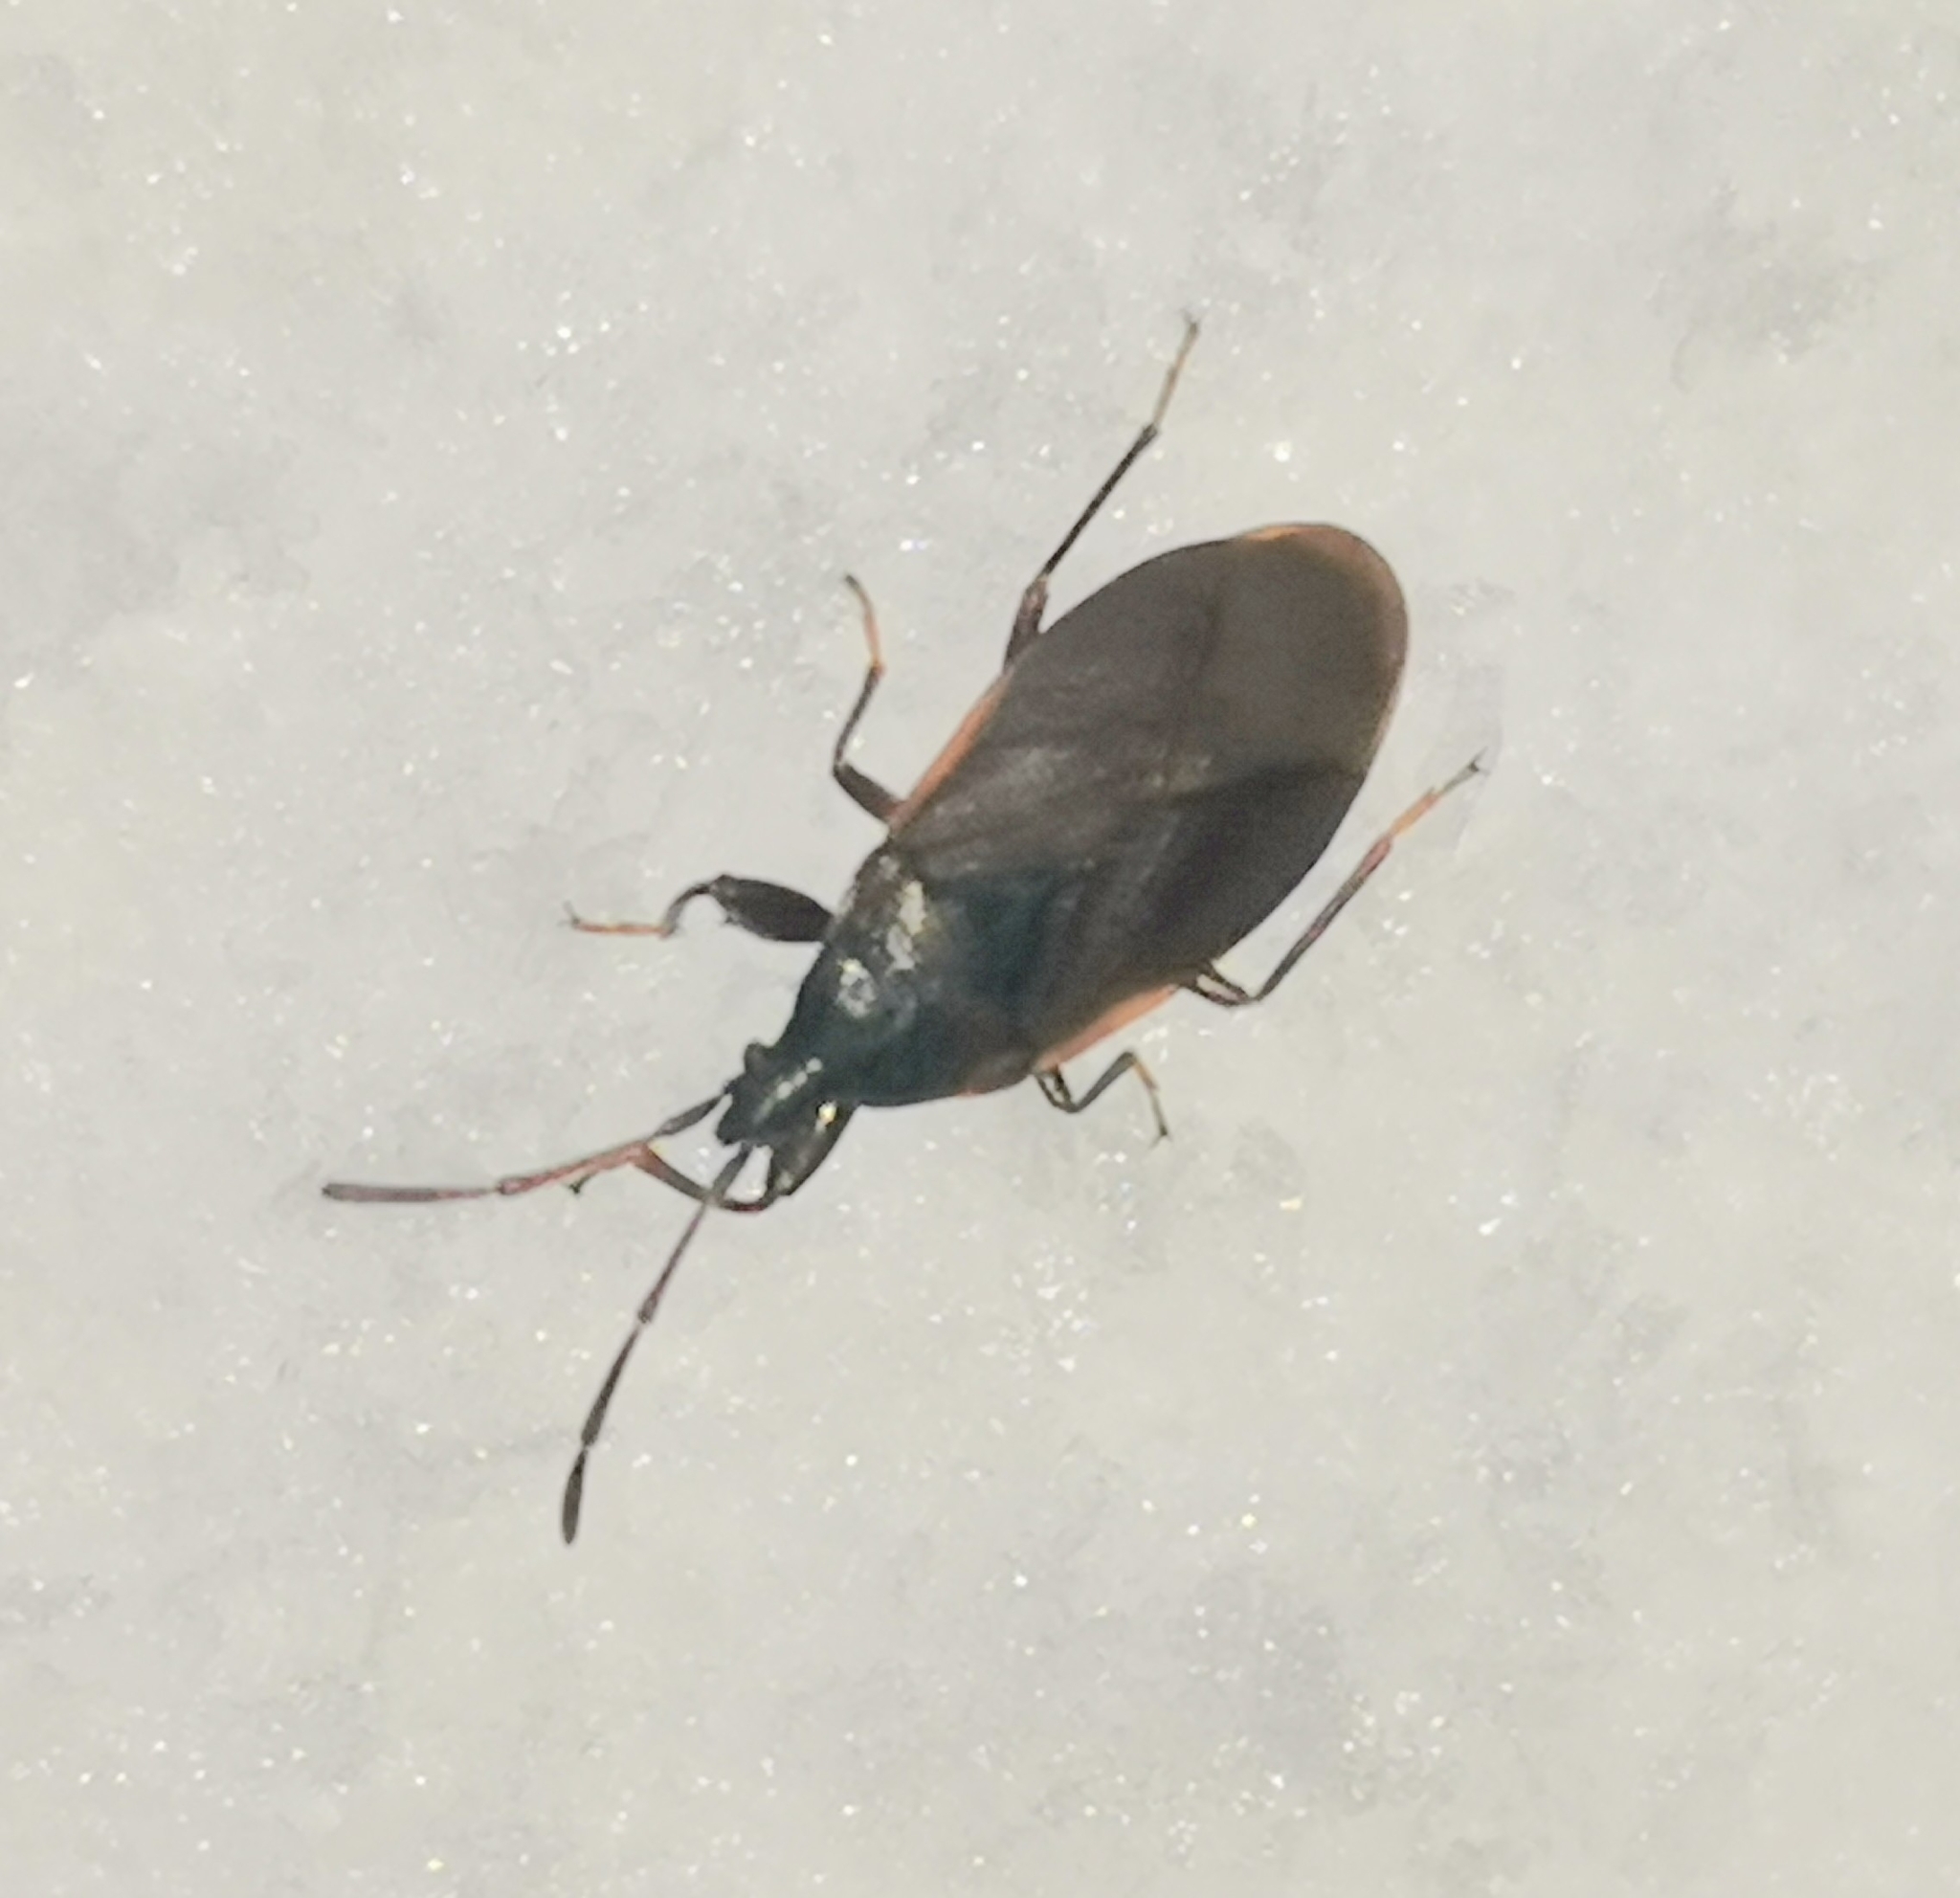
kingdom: Animalia
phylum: Arthropoda
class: Insecta
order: Hemiptera
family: Rhyparochromidae
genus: Gastrodes
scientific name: Gastrodes grossipes
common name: Pine cone bug
